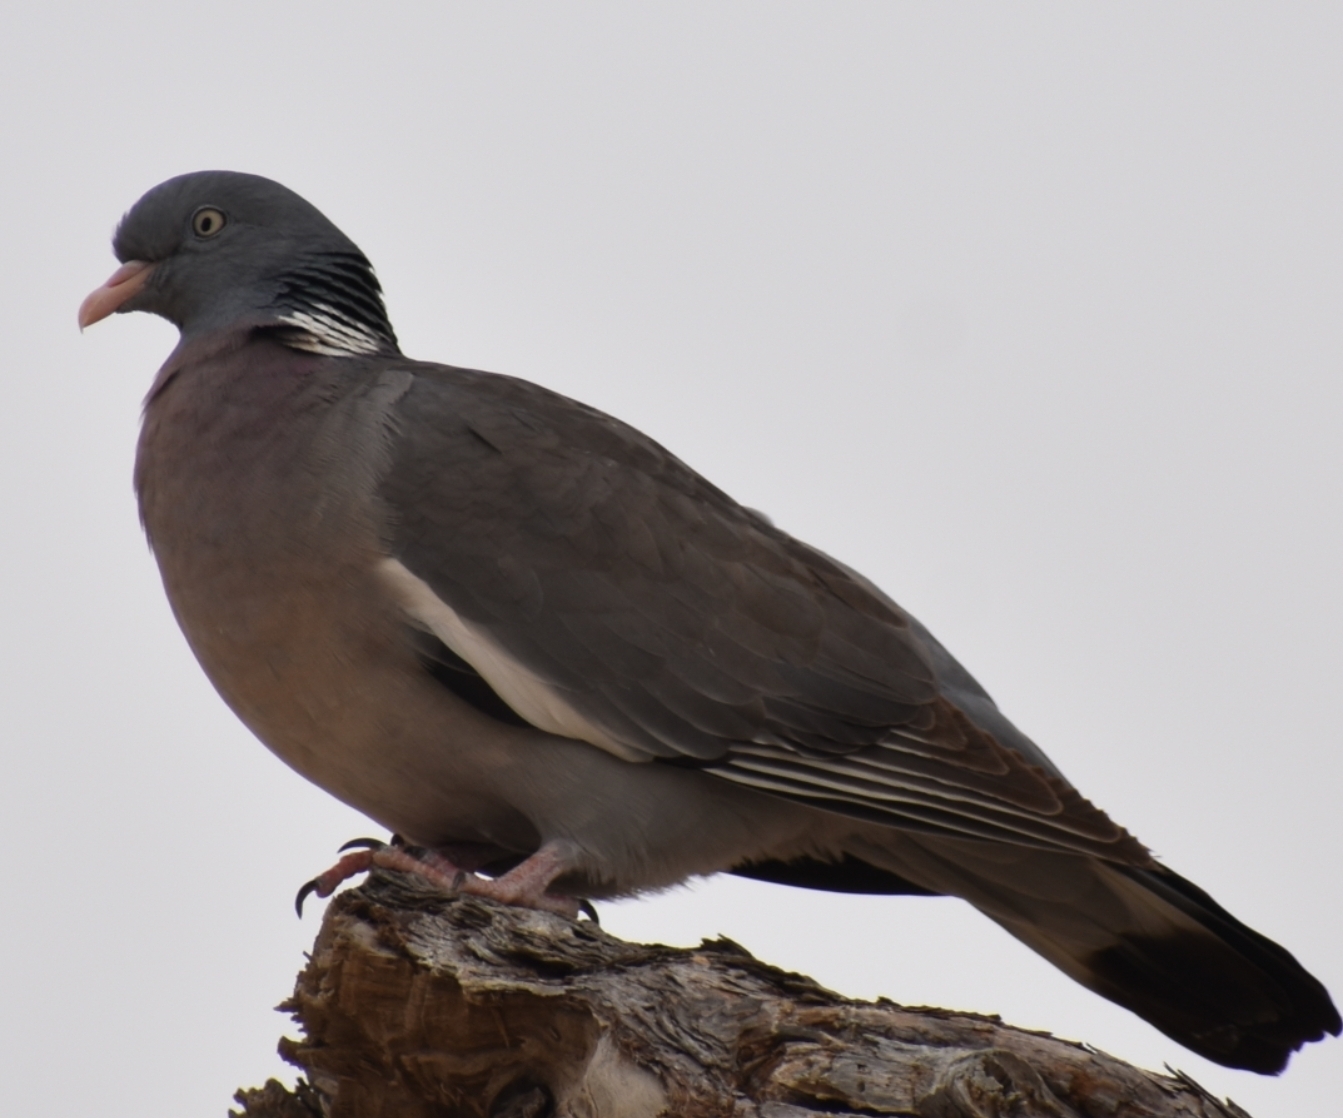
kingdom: Animalia
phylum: Chordata
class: Aves
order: Columbiformes
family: Columbidae
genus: Columba
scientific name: Columba palumbus
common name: Common wood pigeon
